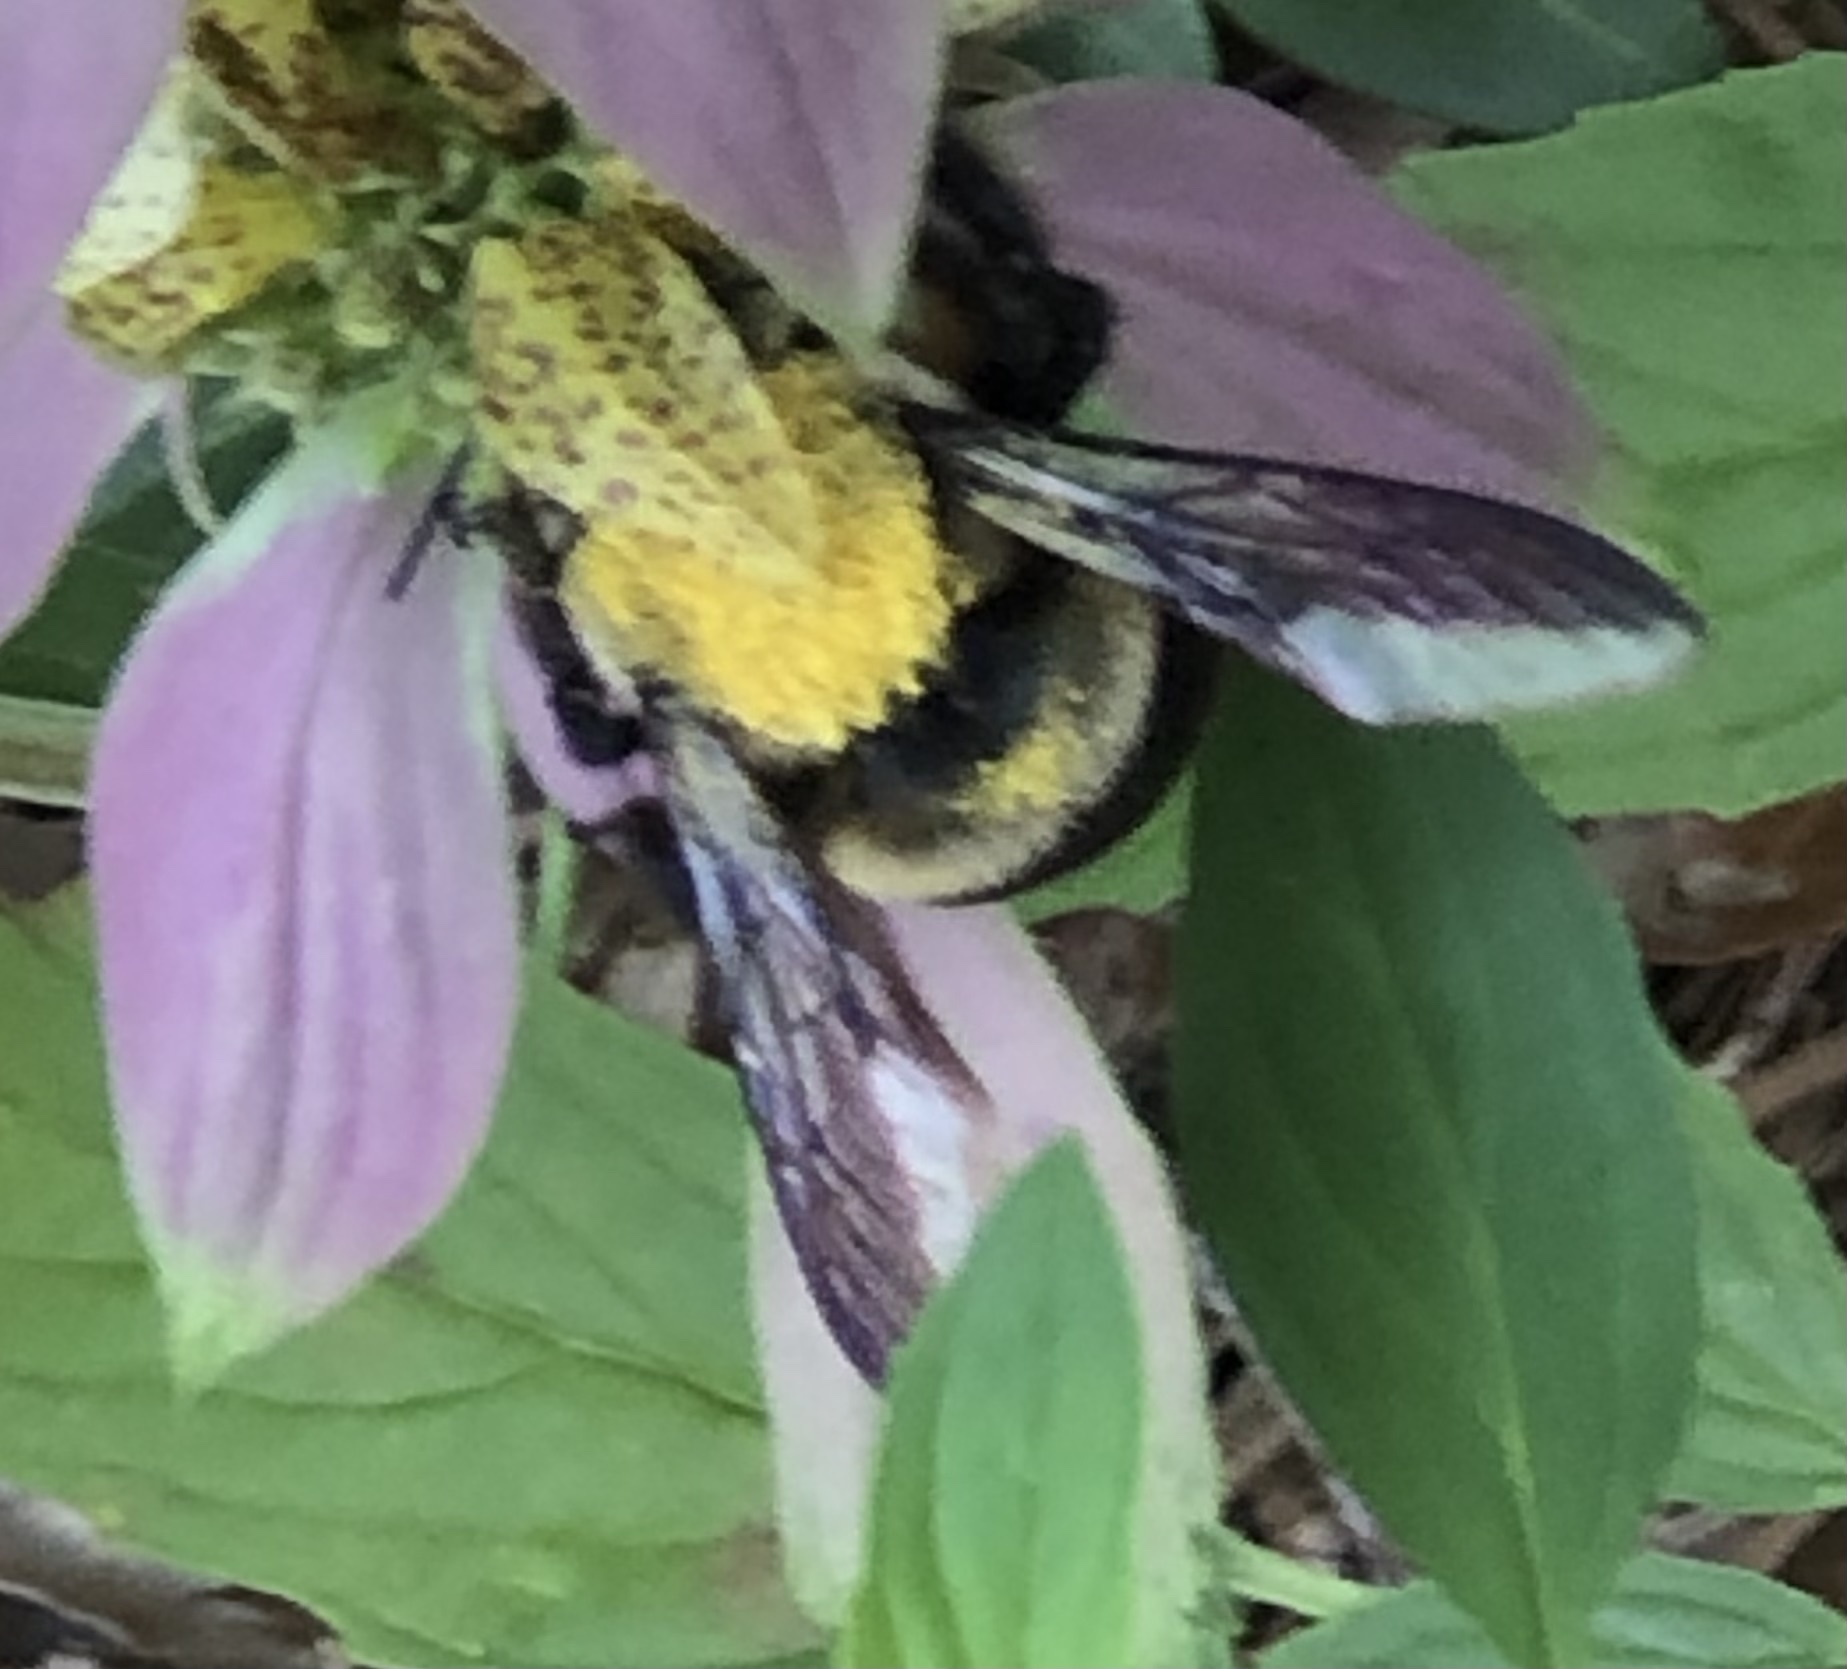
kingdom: Animalia
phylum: Arthropoda
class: Insecta
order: Hymenoptera
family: Apidae
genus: Xylocopa
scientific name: Xylocopa virginica
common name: Carpenter bee
